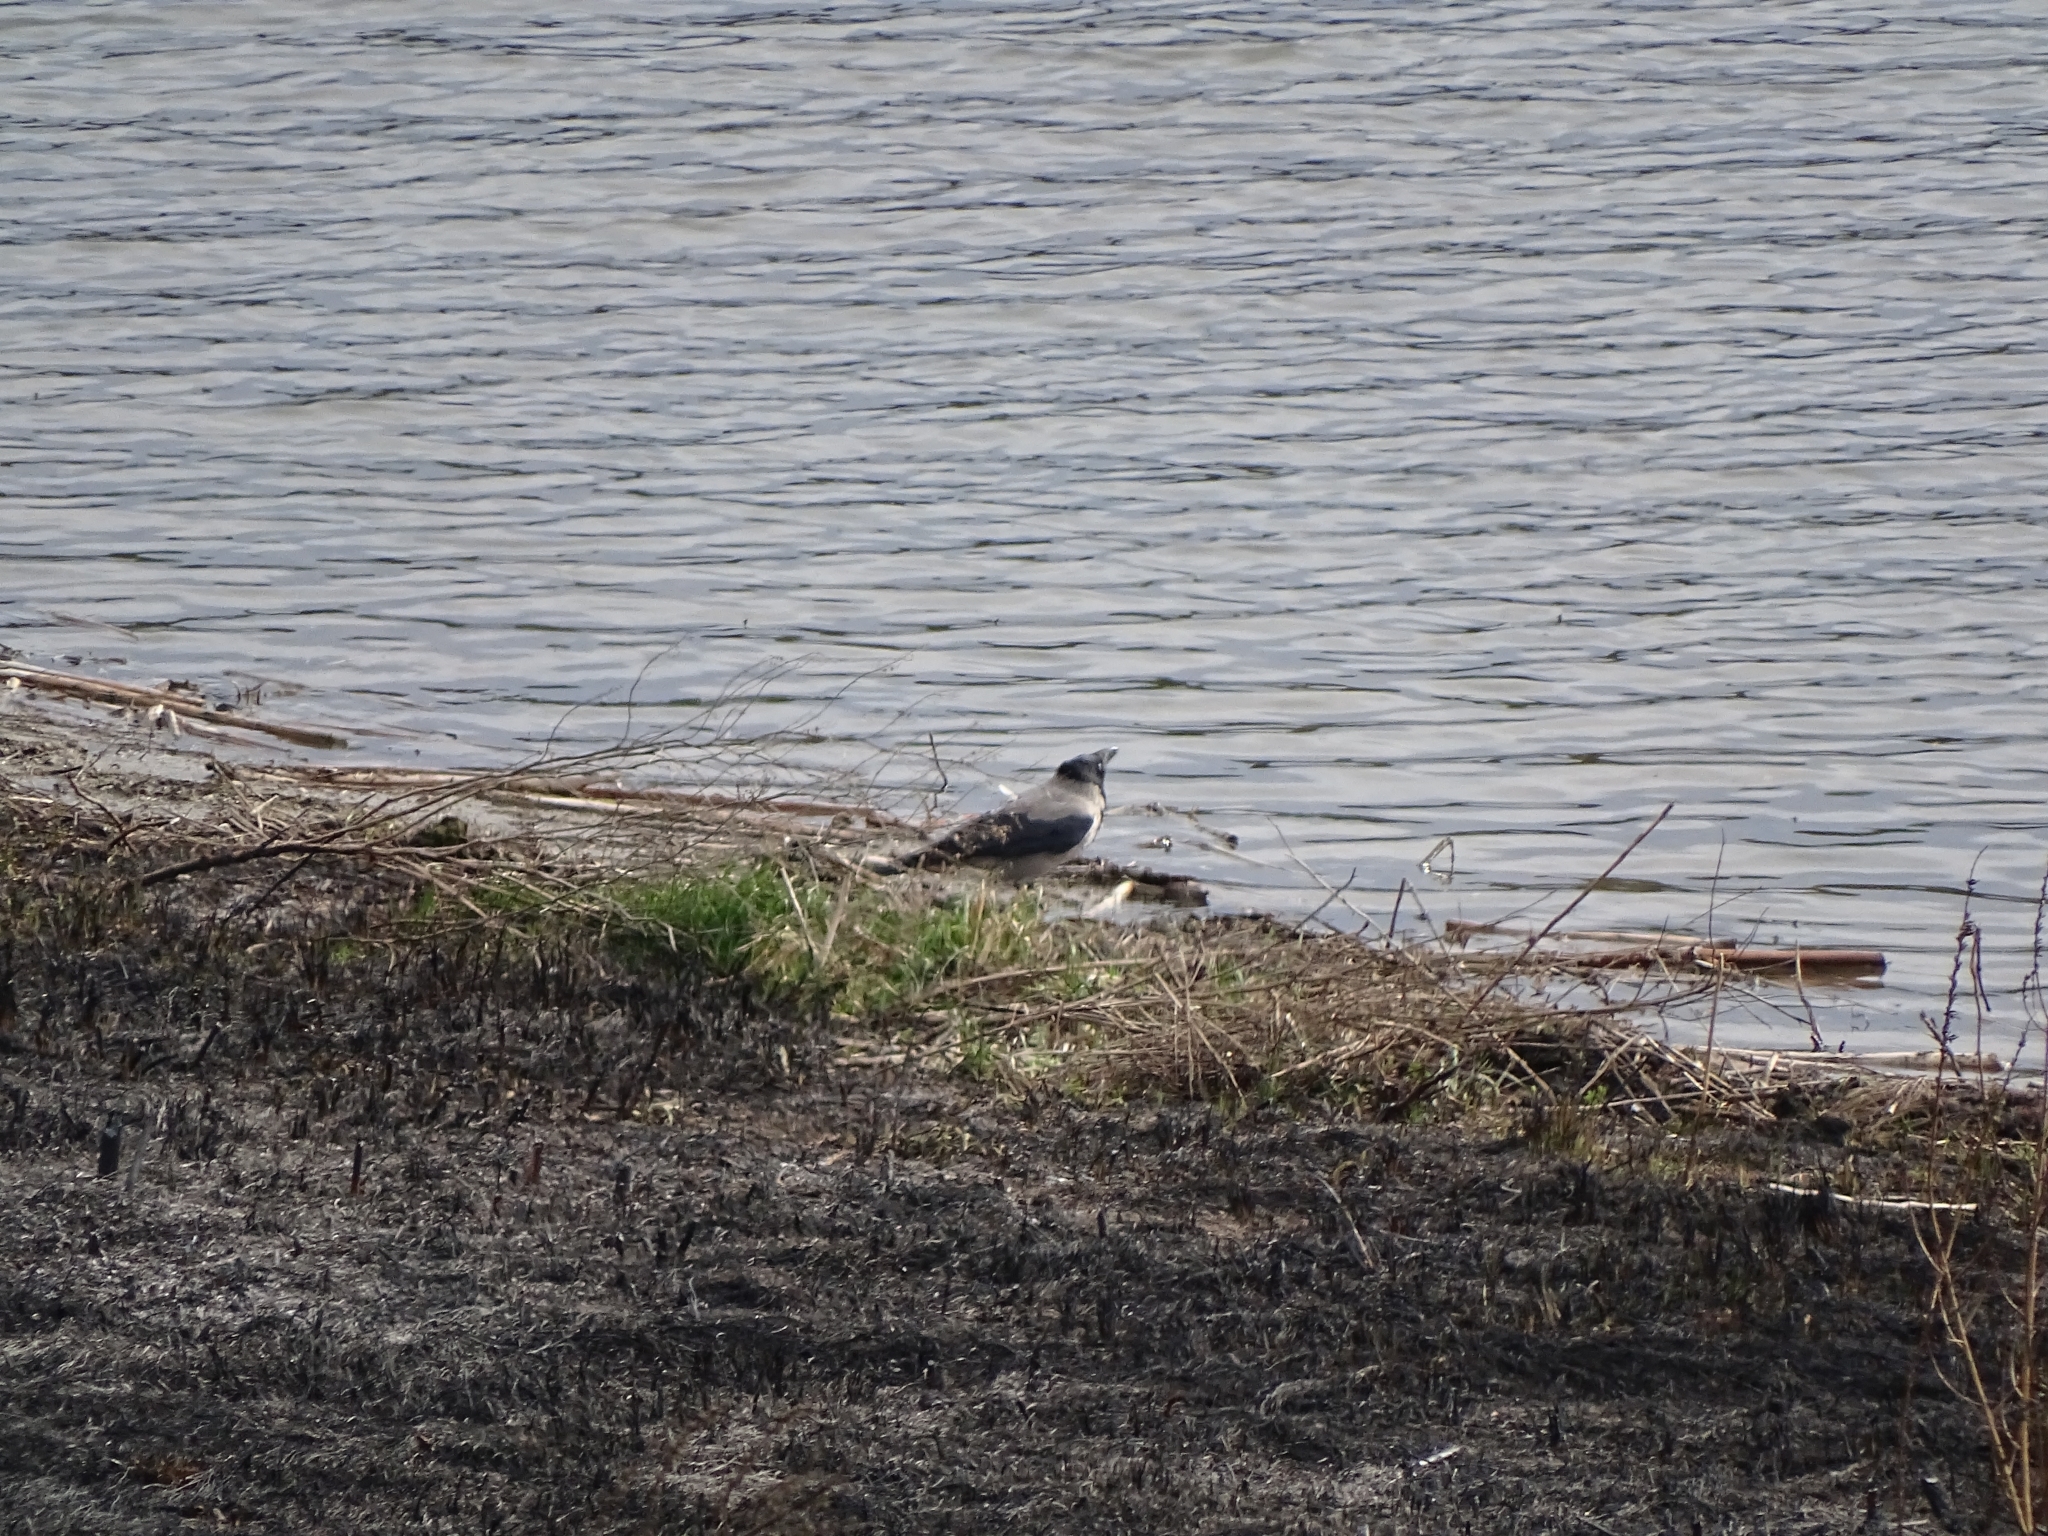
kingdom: Animalia
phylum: Chordata
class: Aves
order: Passeriformes
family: Corvidae
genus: Corvus
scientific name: Corvus cornix
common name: Hooded crow
